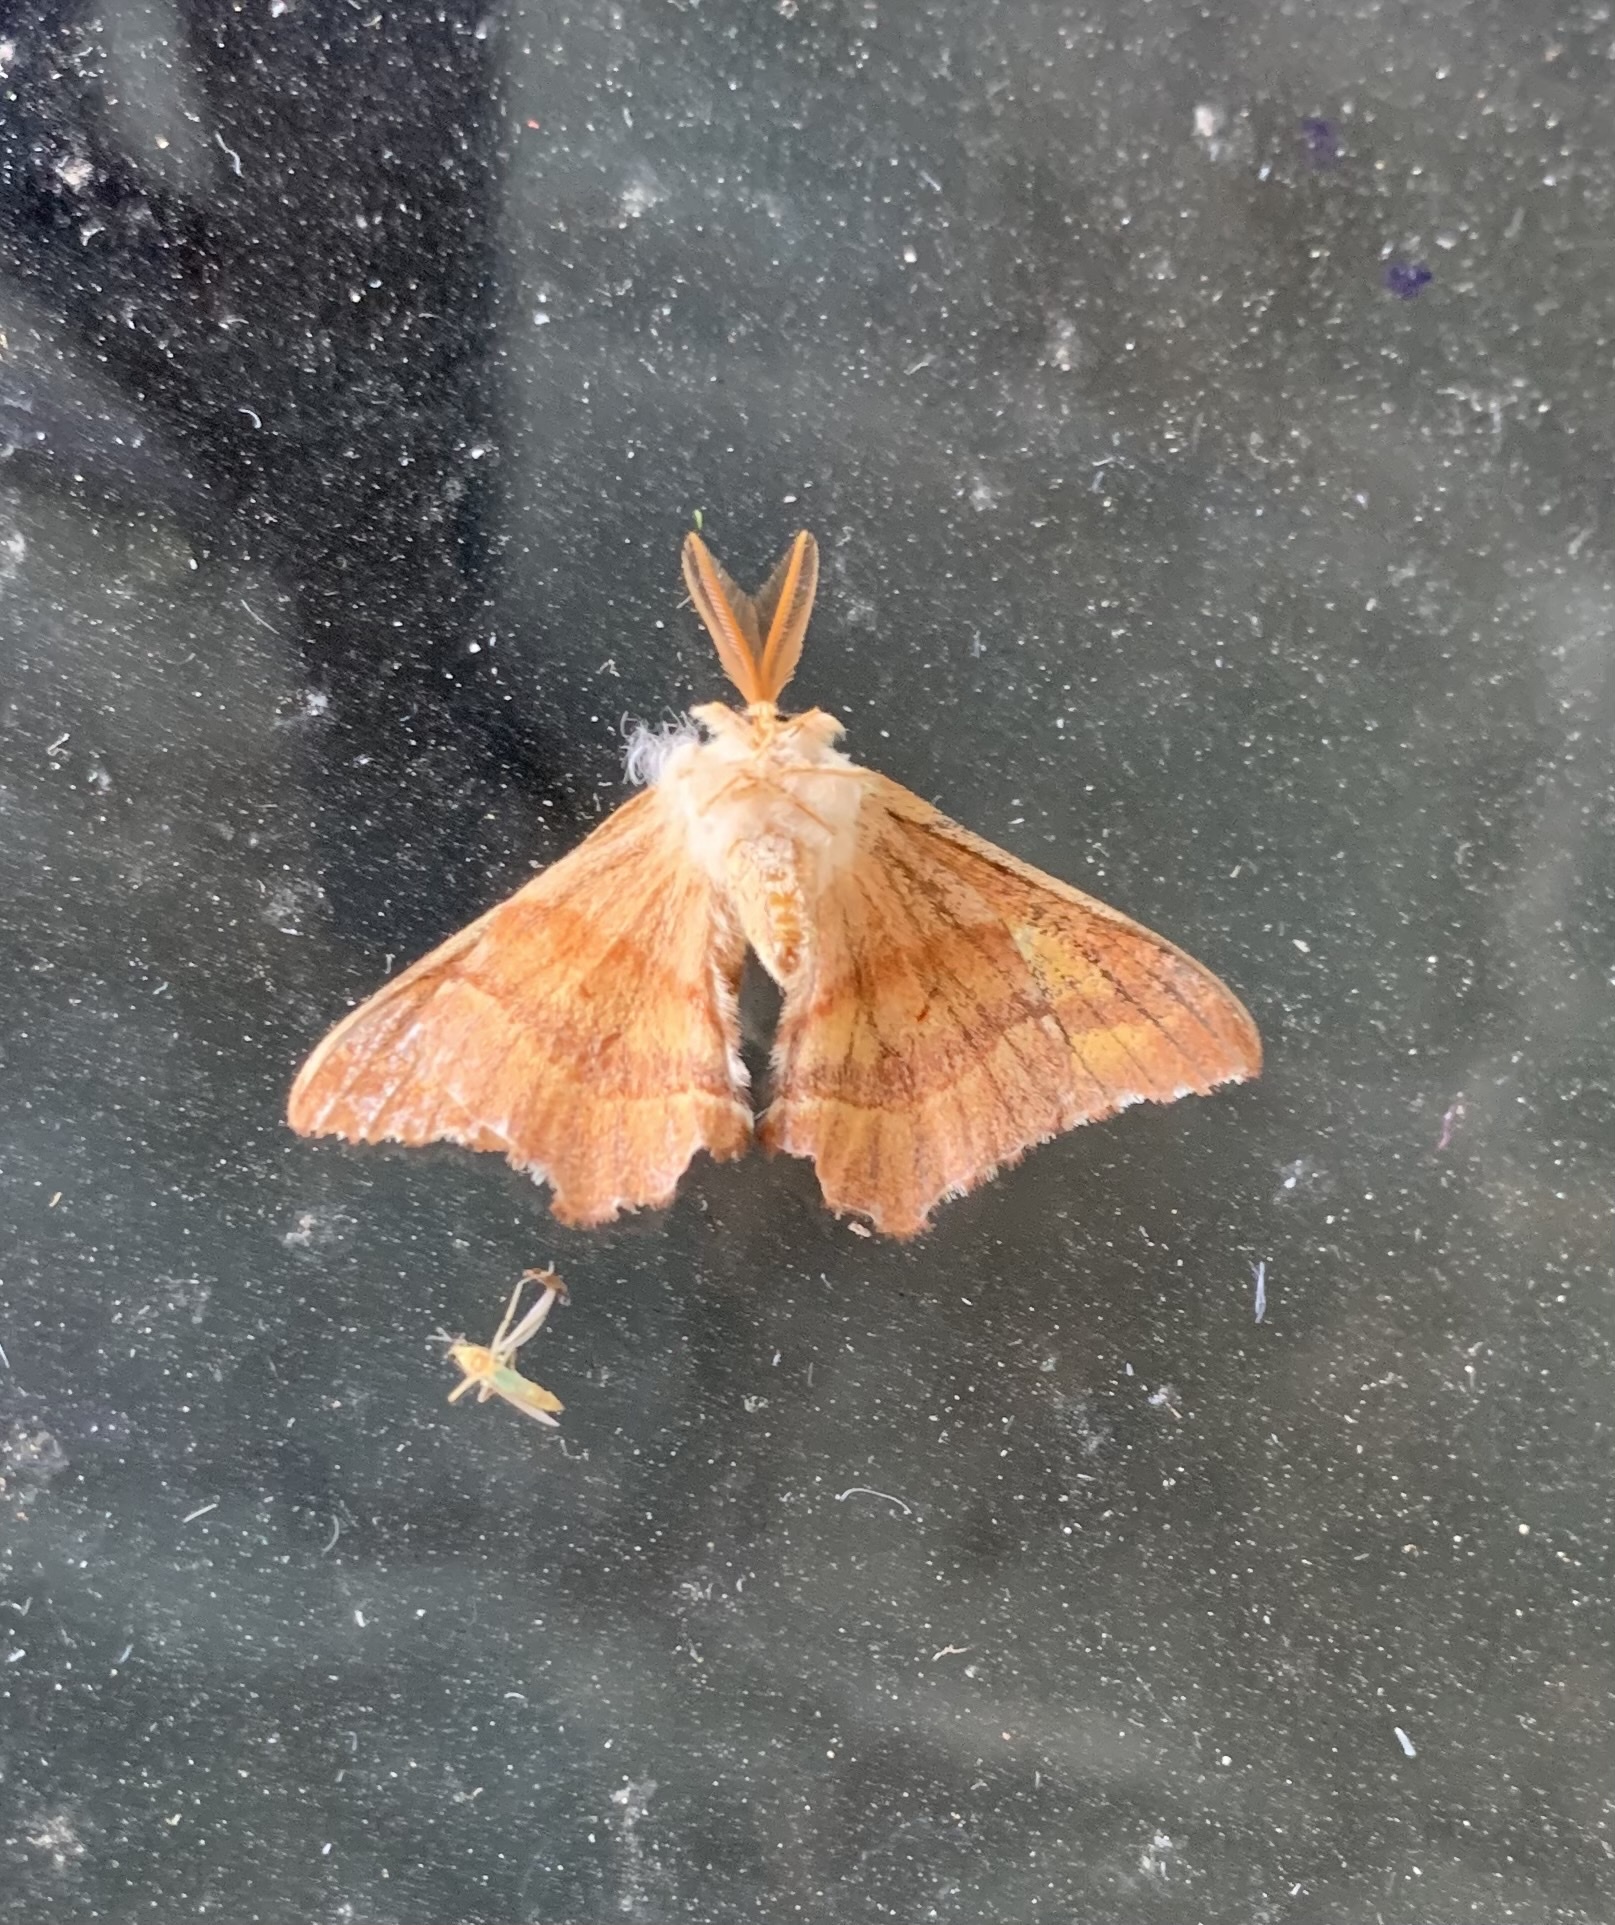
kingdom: Animalia
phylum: Arthropoda
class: Insecta
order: Lepidoptera
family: Saturniidae
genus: Microdulia
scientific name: Microdulia mirabilis
